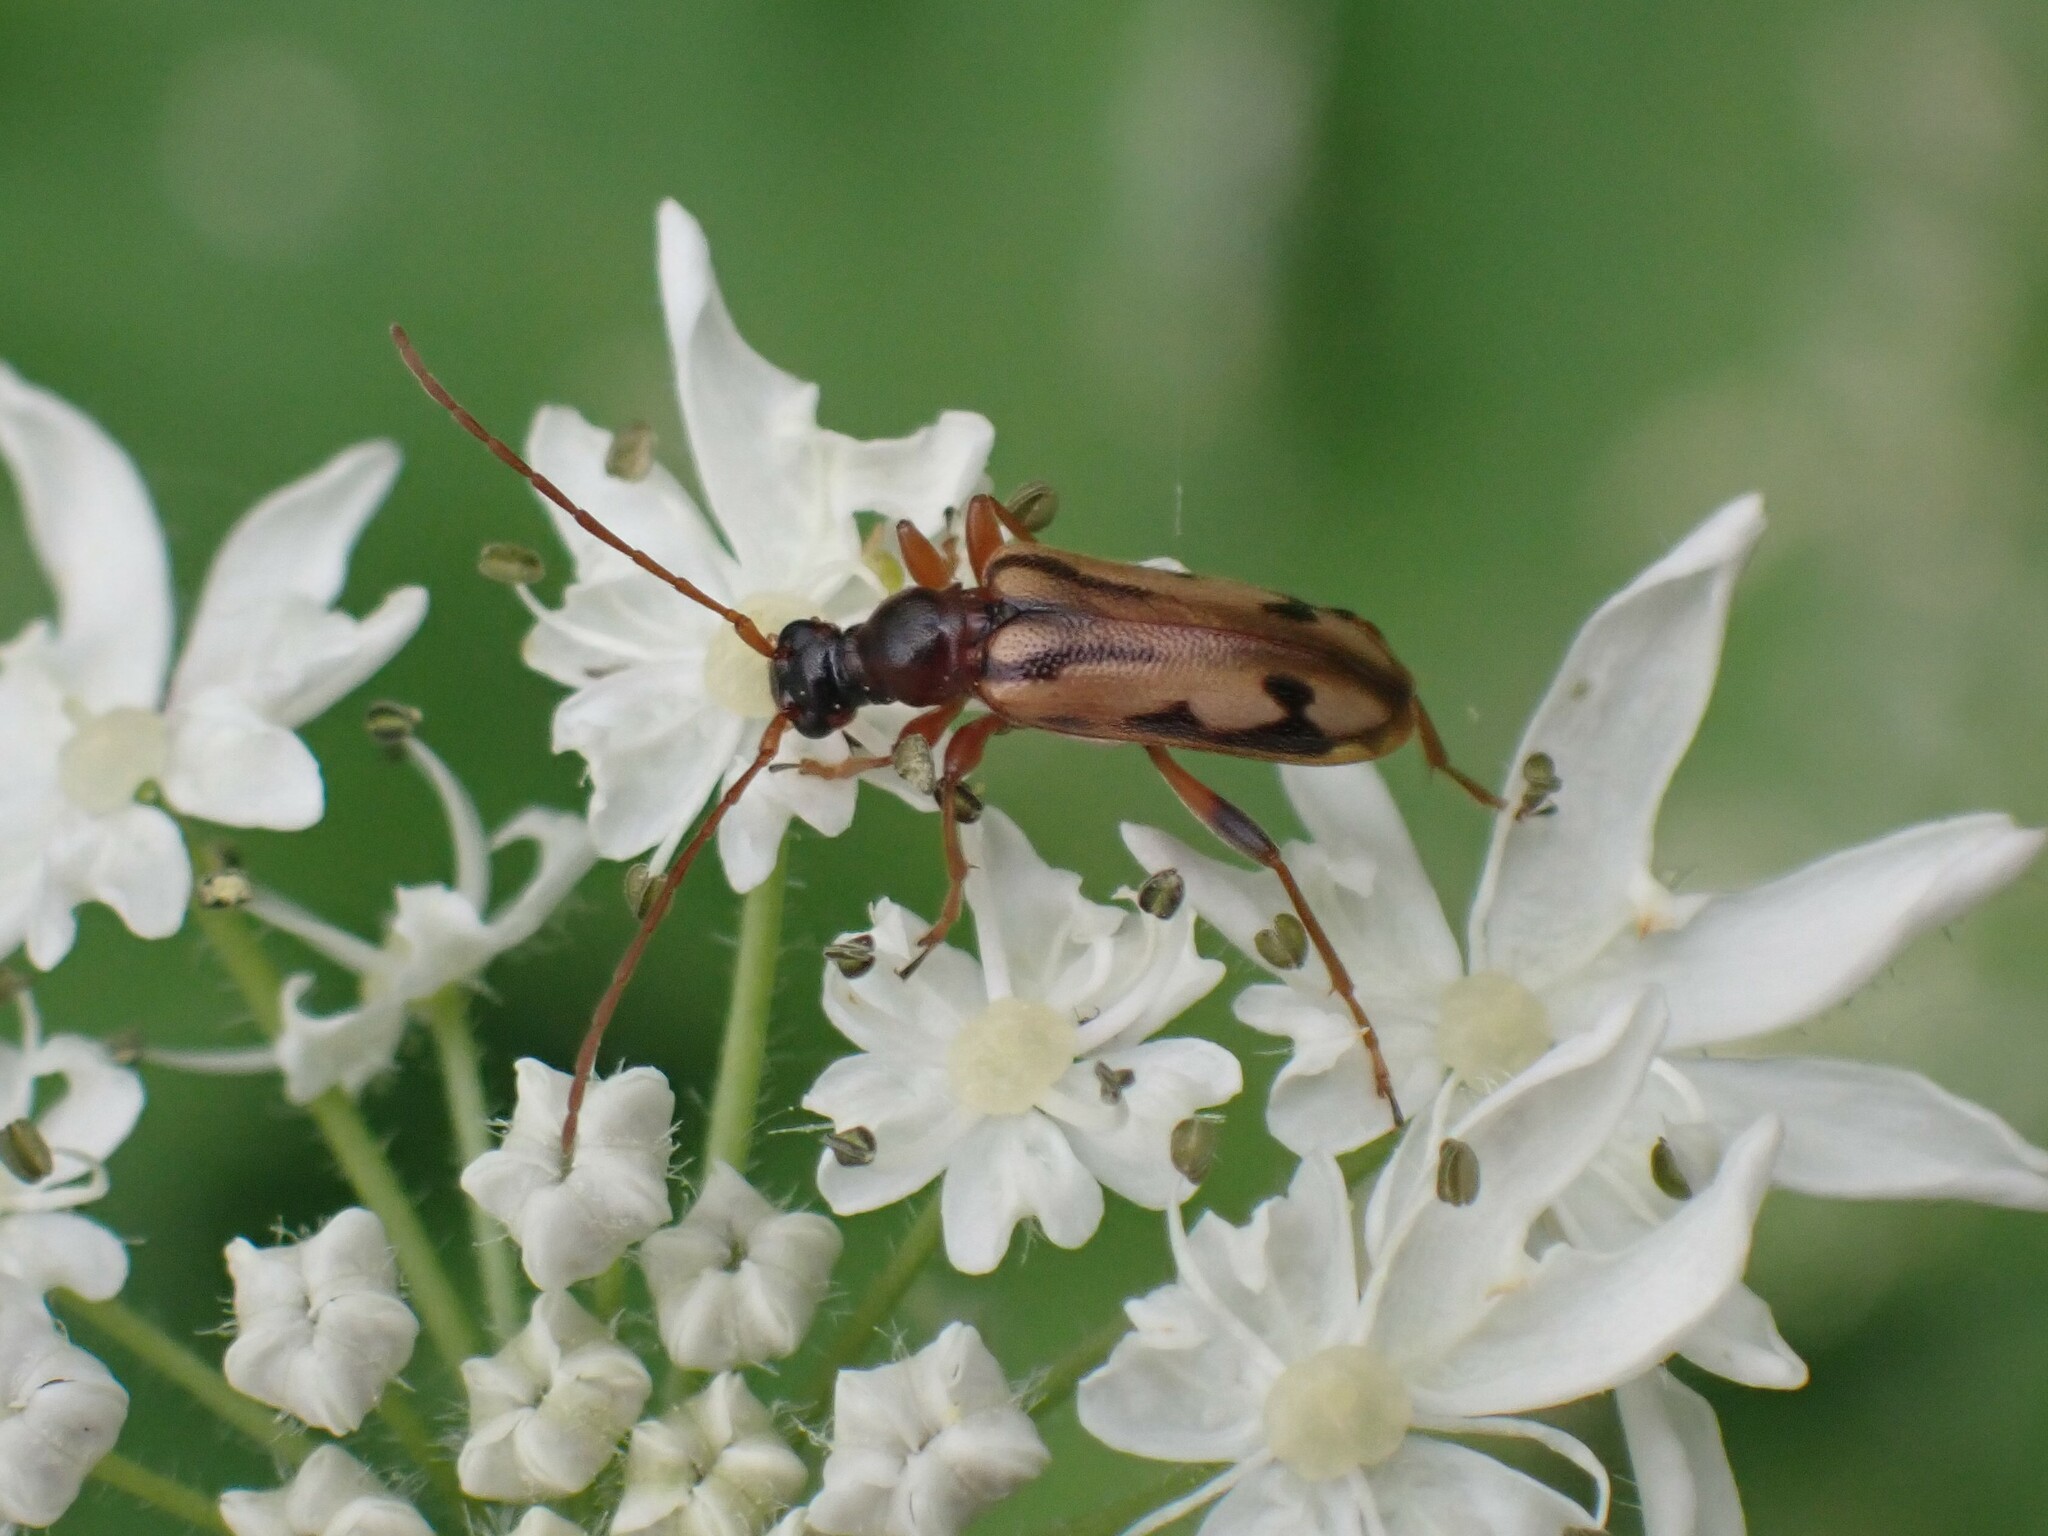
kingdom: Animalia
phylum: Arthropoda
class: Insecta
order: Coleoptera
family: Cerambycidae
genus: Pidonia
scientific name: Pidonia scripta
